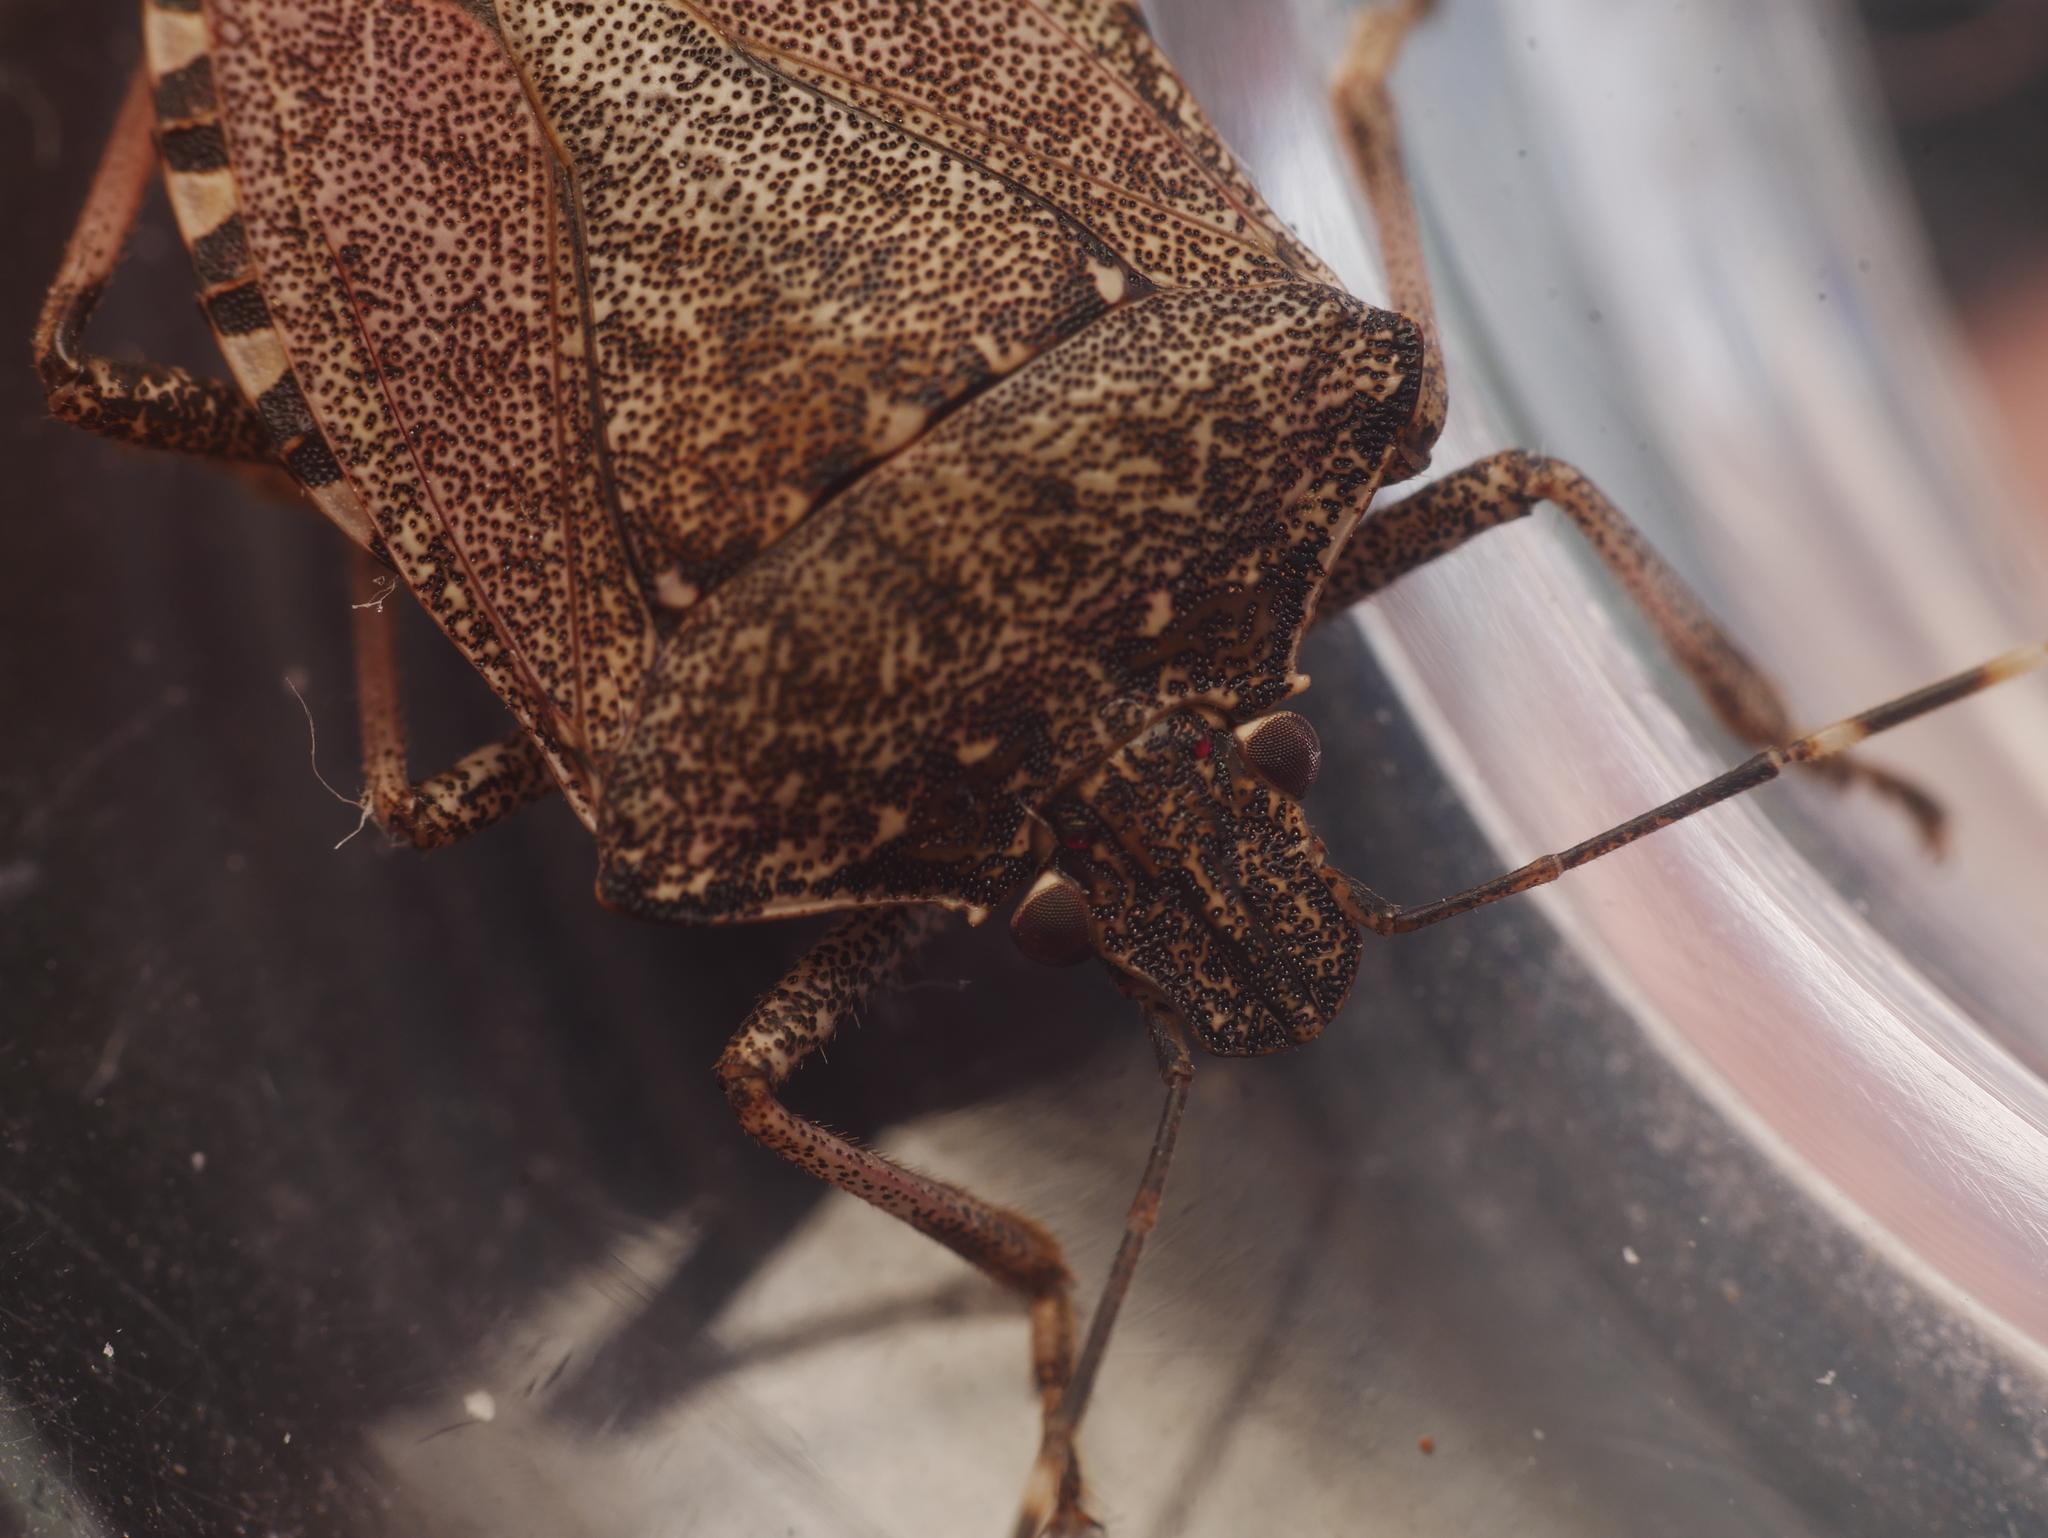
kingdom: Animalia
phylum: Arthropoda
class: Insecta
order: Hemiptera
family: Pentatomidae
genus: Halyomorpha
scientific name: Halyomorpha halys
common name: Brown marmorated stink bug
